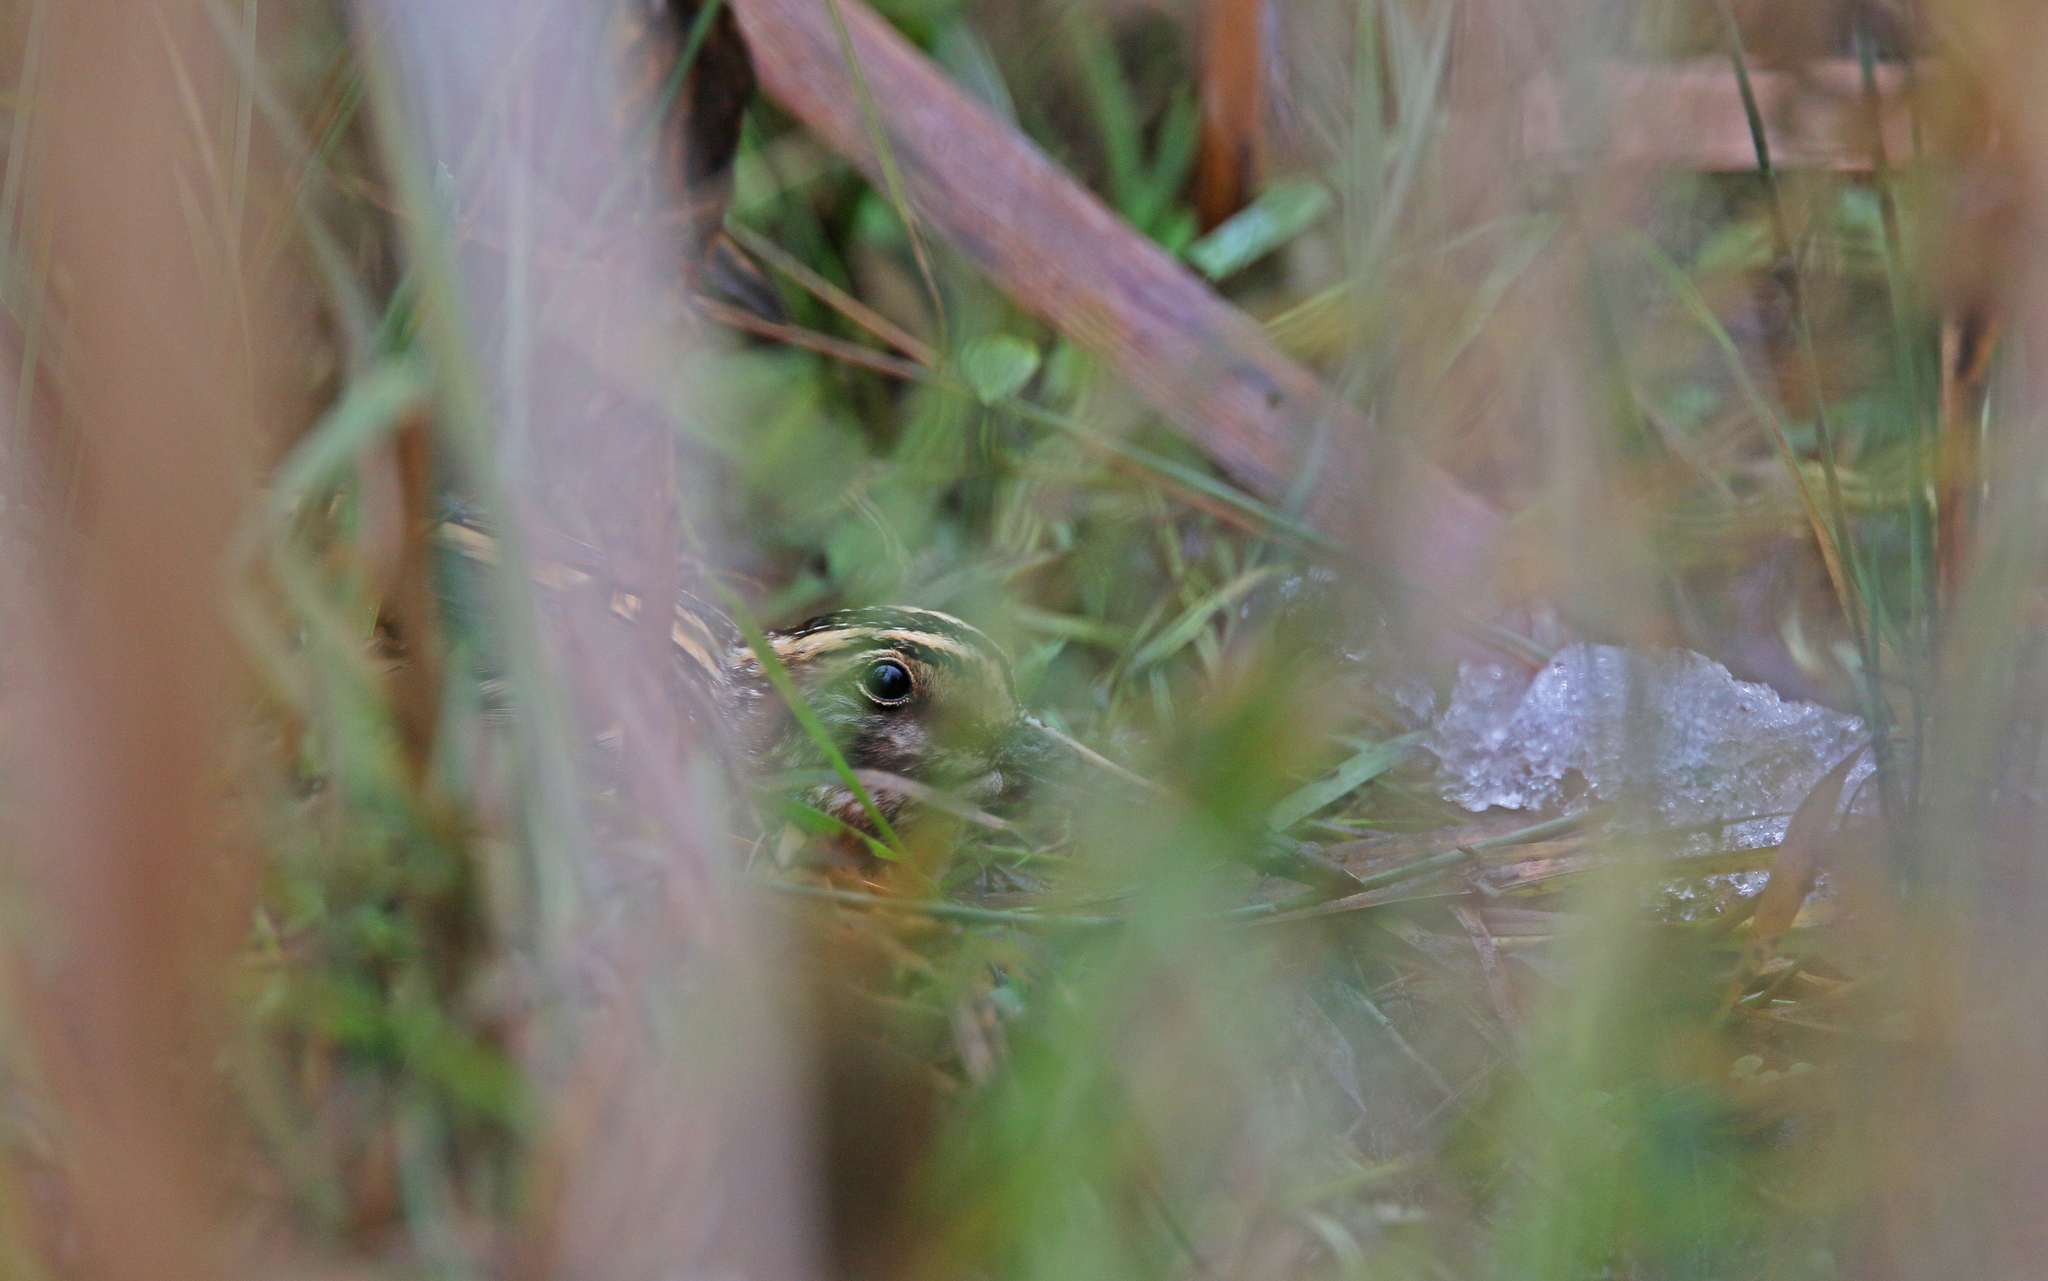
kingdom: Animalia
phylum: Chordata
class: Aves
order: Charadriiformes
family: Scolopacidae
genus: Lymnocryptes
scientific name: Lymnocryptes minimus
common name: Jack snipe
